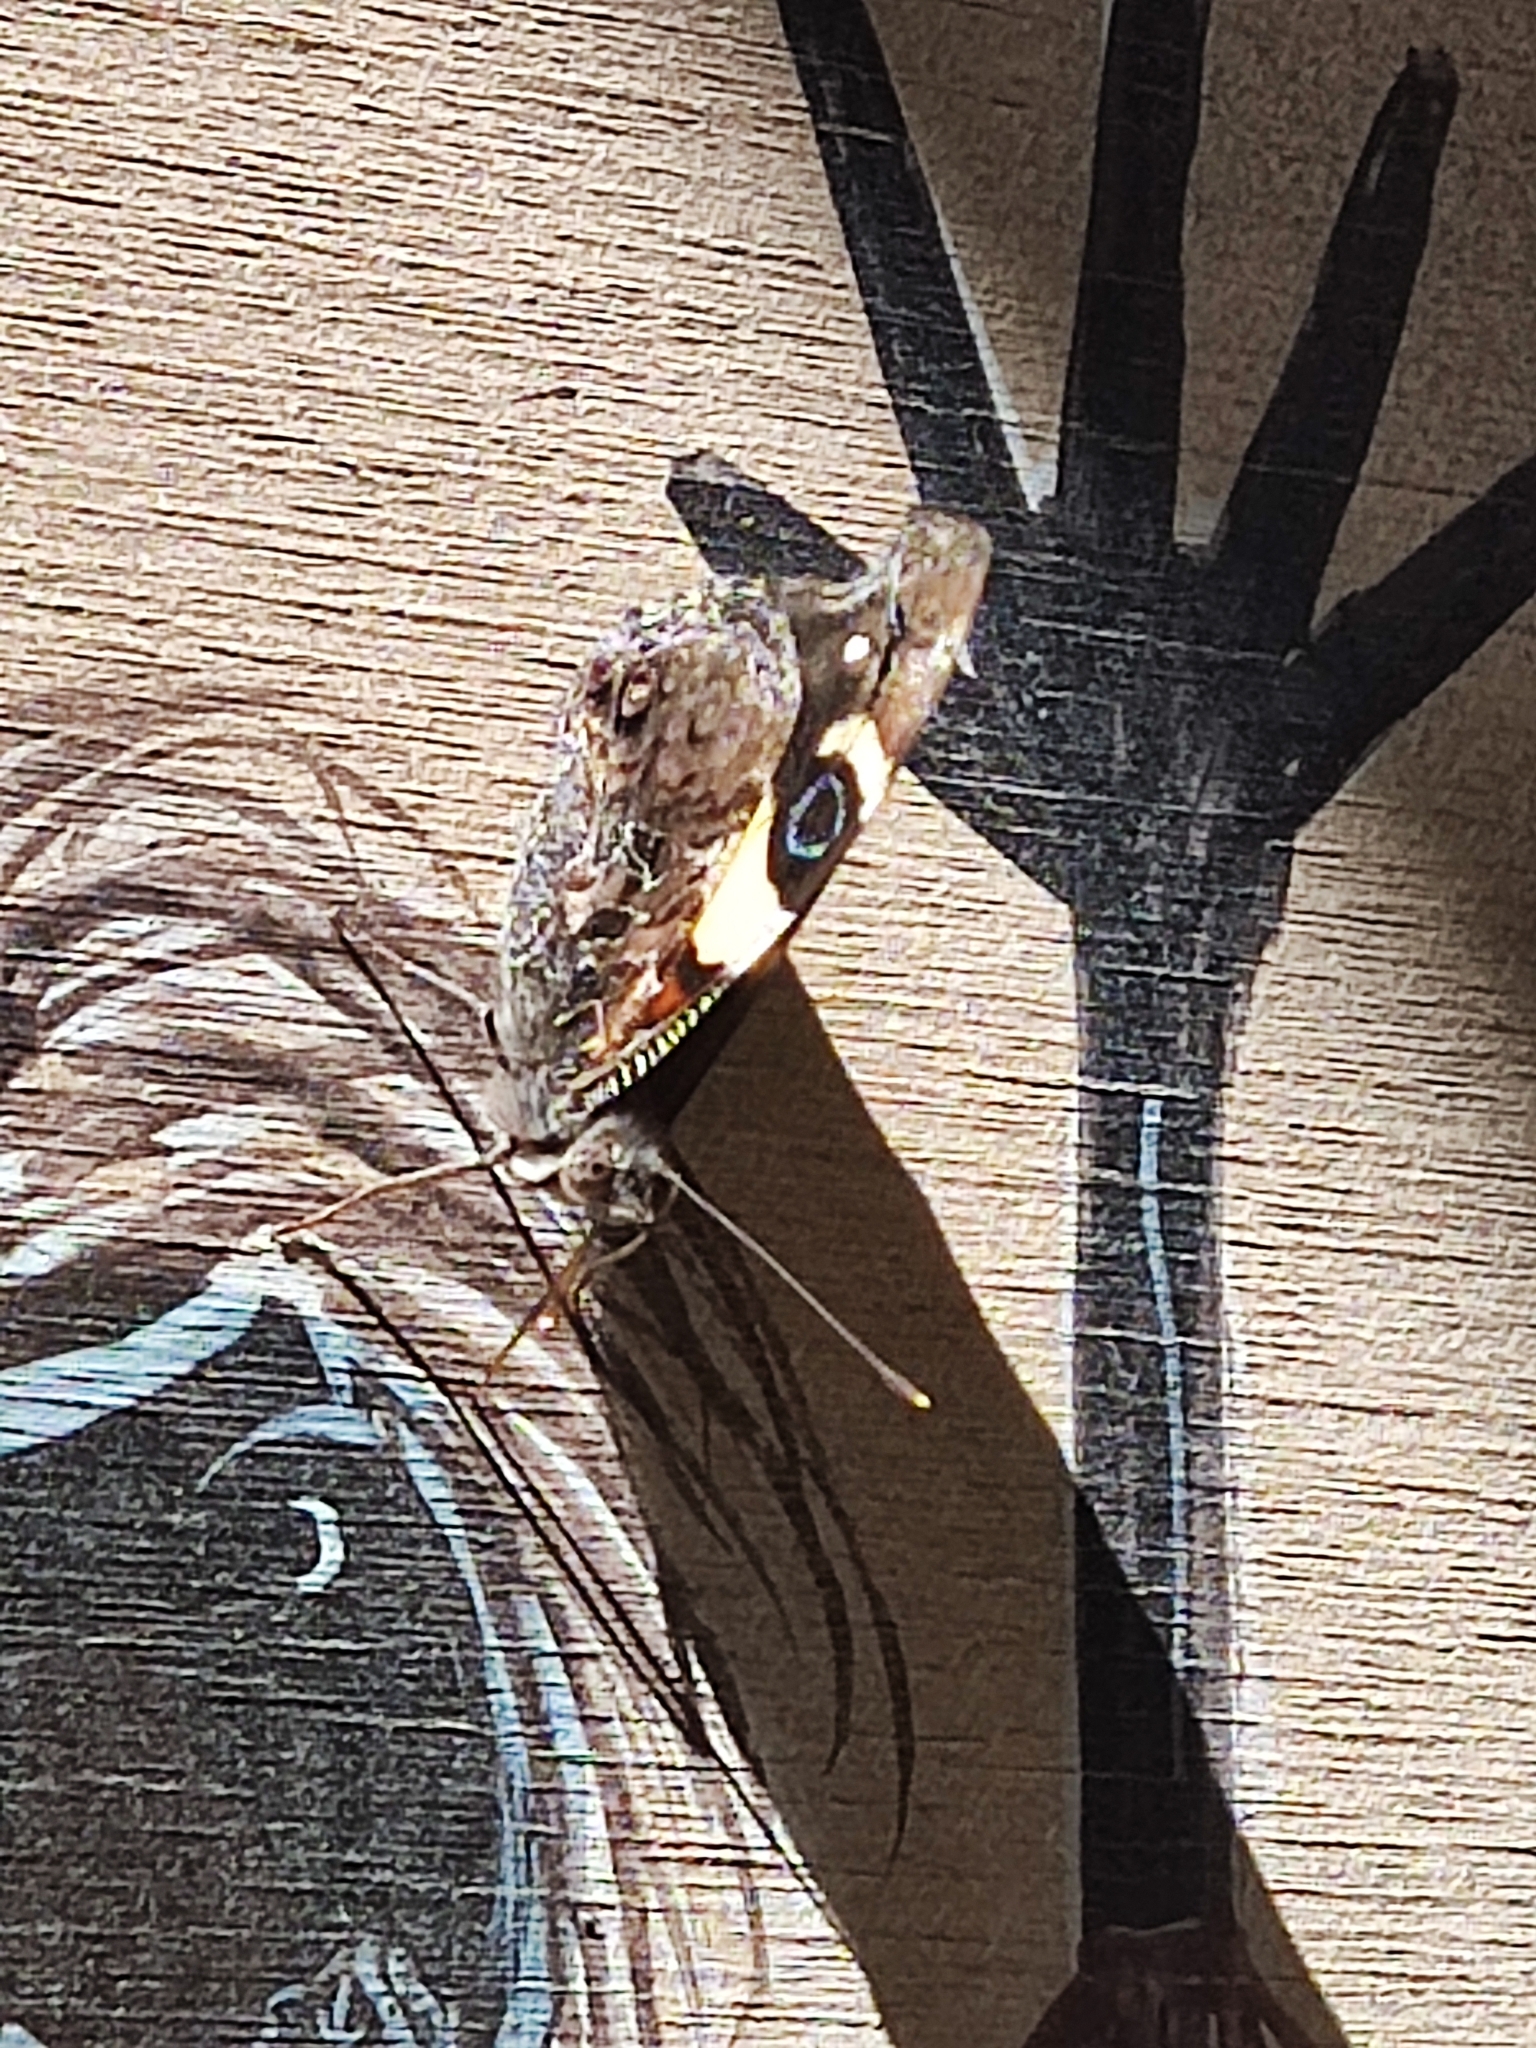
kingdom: Animalia
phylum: Arthropoda
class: Insecta
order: Lepidoptera
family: Nymphalidae
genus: Vanessa
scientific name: Vanessa itea
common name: Yellow admiral
